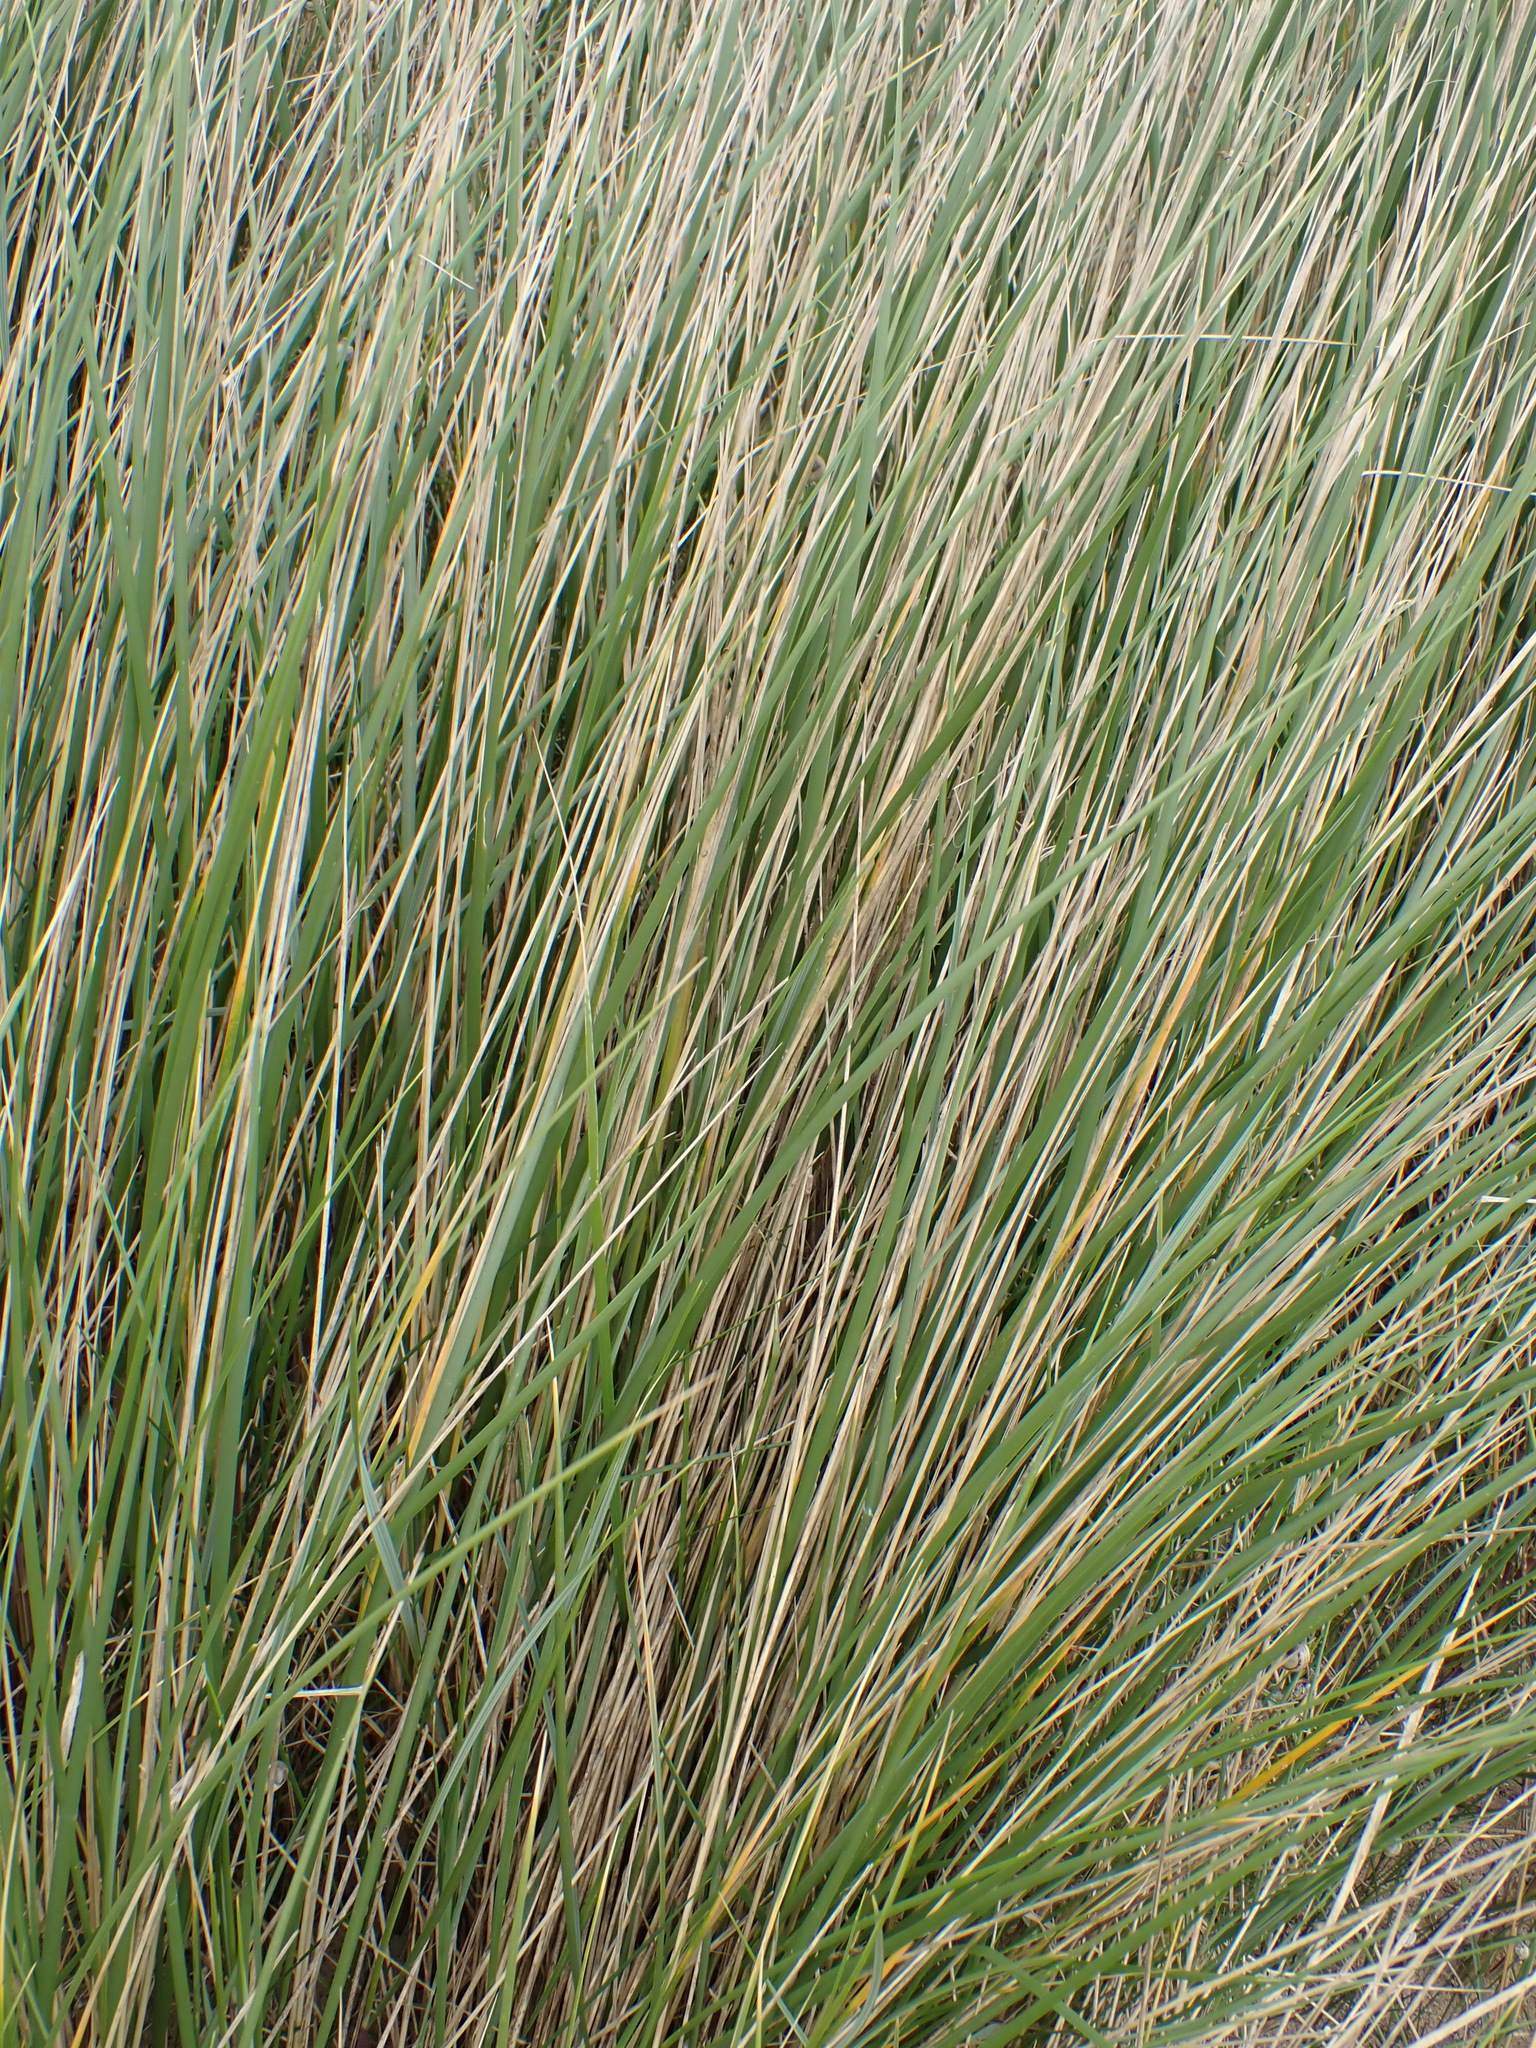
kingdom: Plantae
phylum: Tracheophyta
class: Liliopsida
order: Poales
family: Poaceae
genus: Calamagrostis
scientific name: Calamagrostis arenaria
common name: European beachgrass
